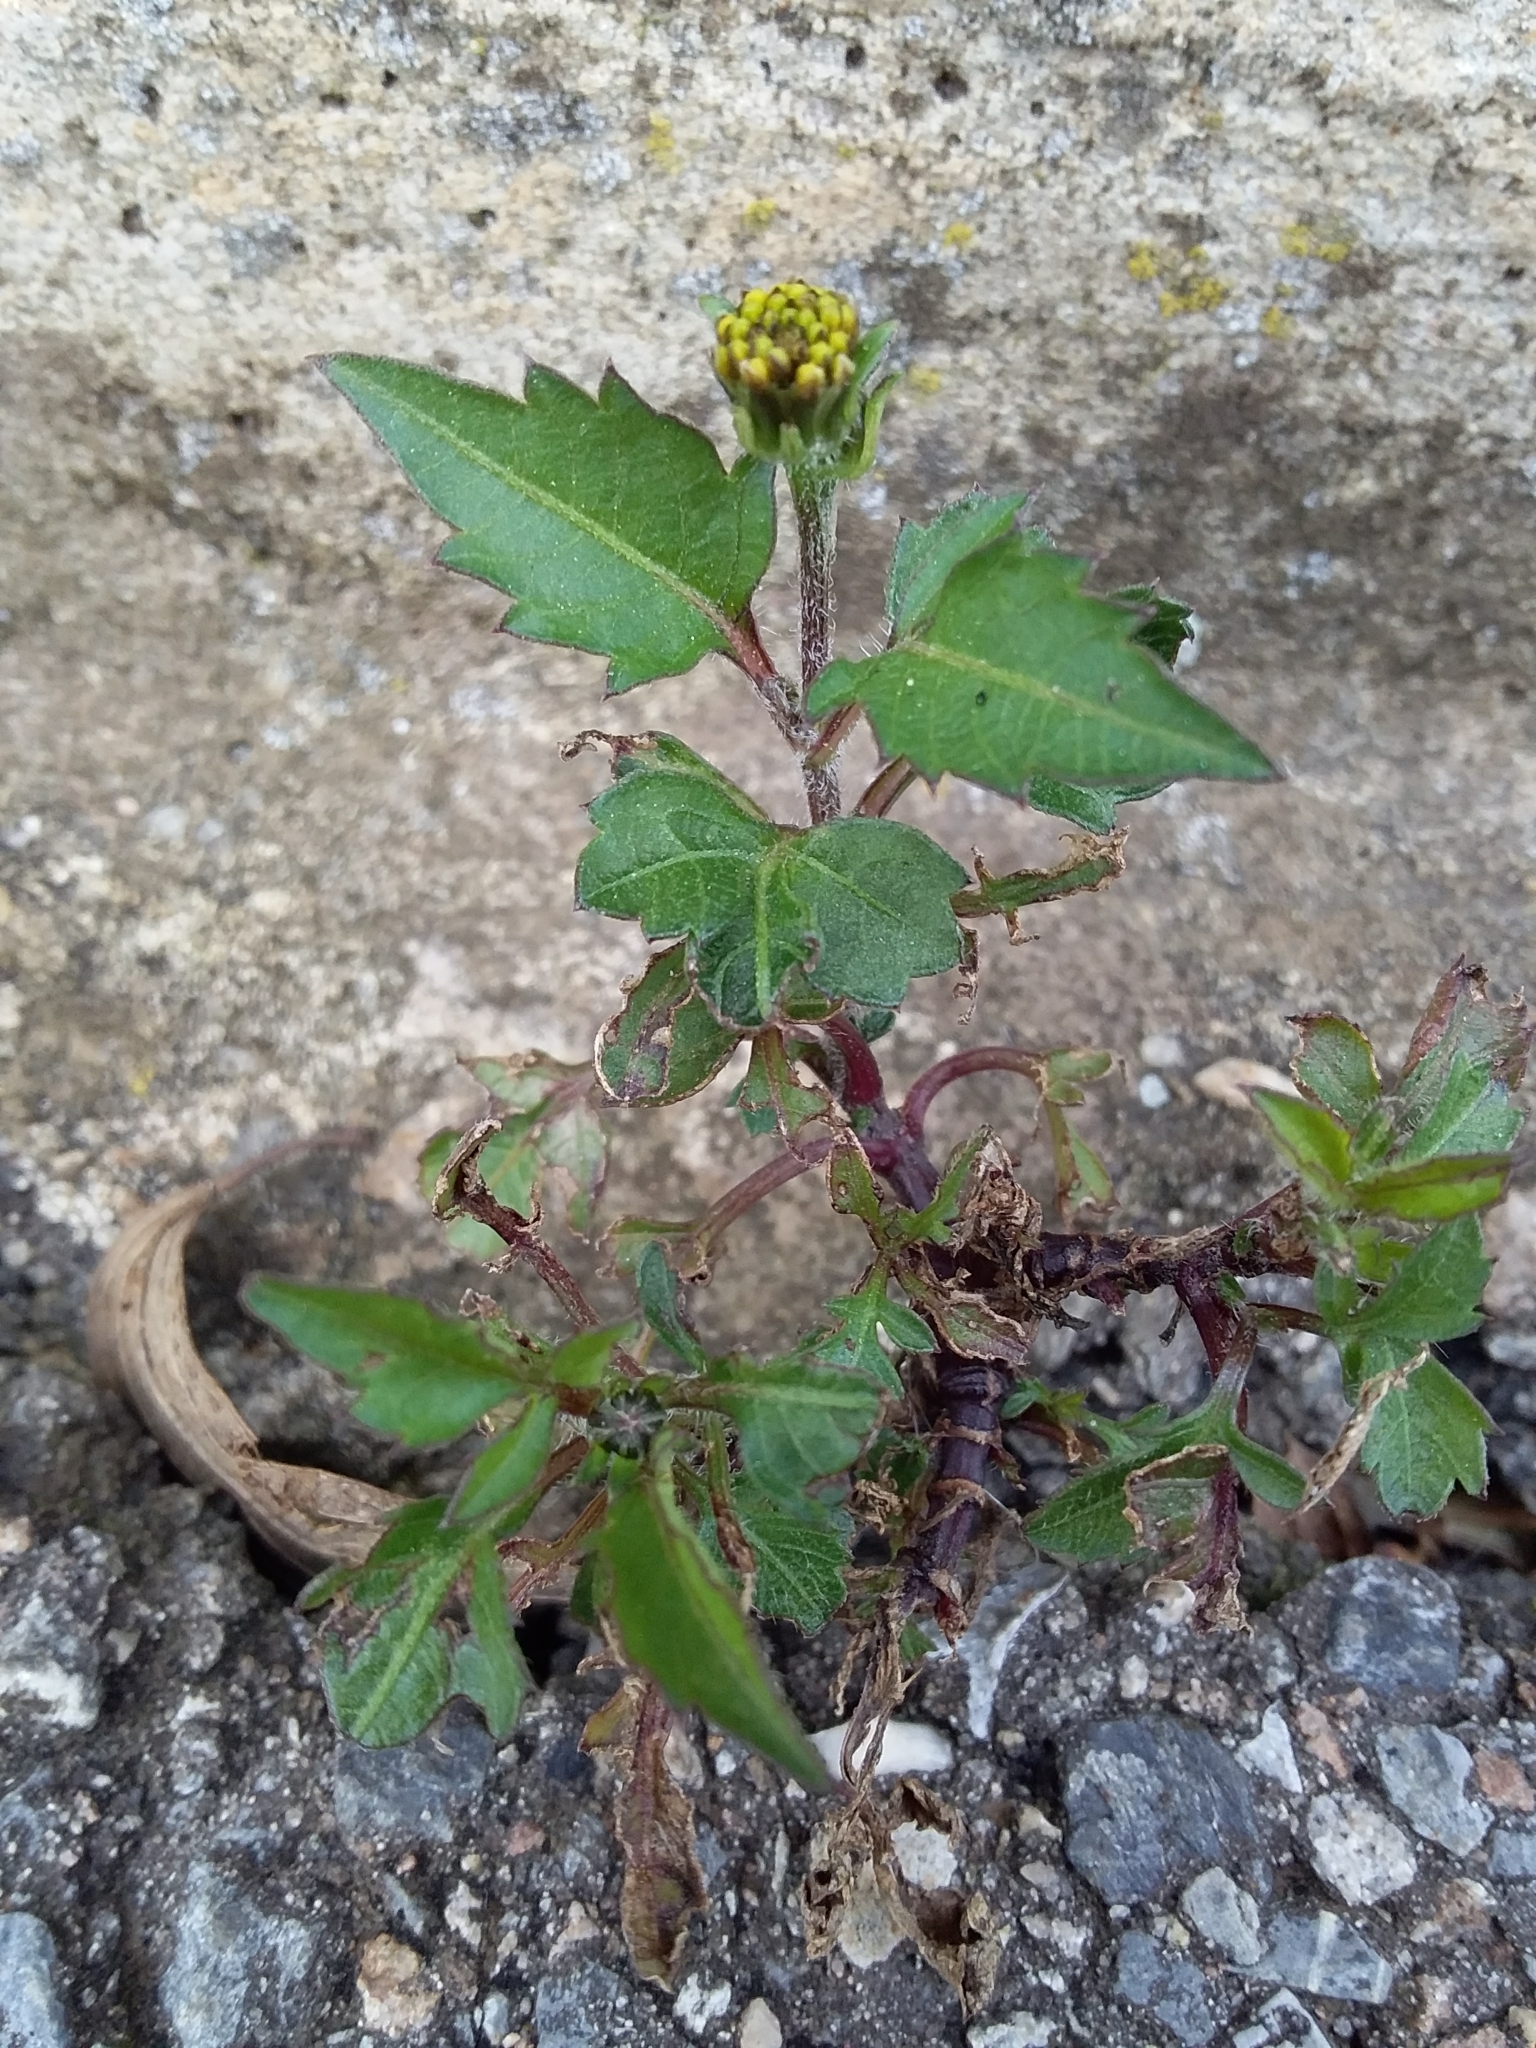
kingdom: Plantae
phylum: Tracheophyta
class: Magnoliopsida
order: Asterales
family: Asteraceae
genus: Bidens
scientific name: Bidens pilosa
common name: Black-jack
